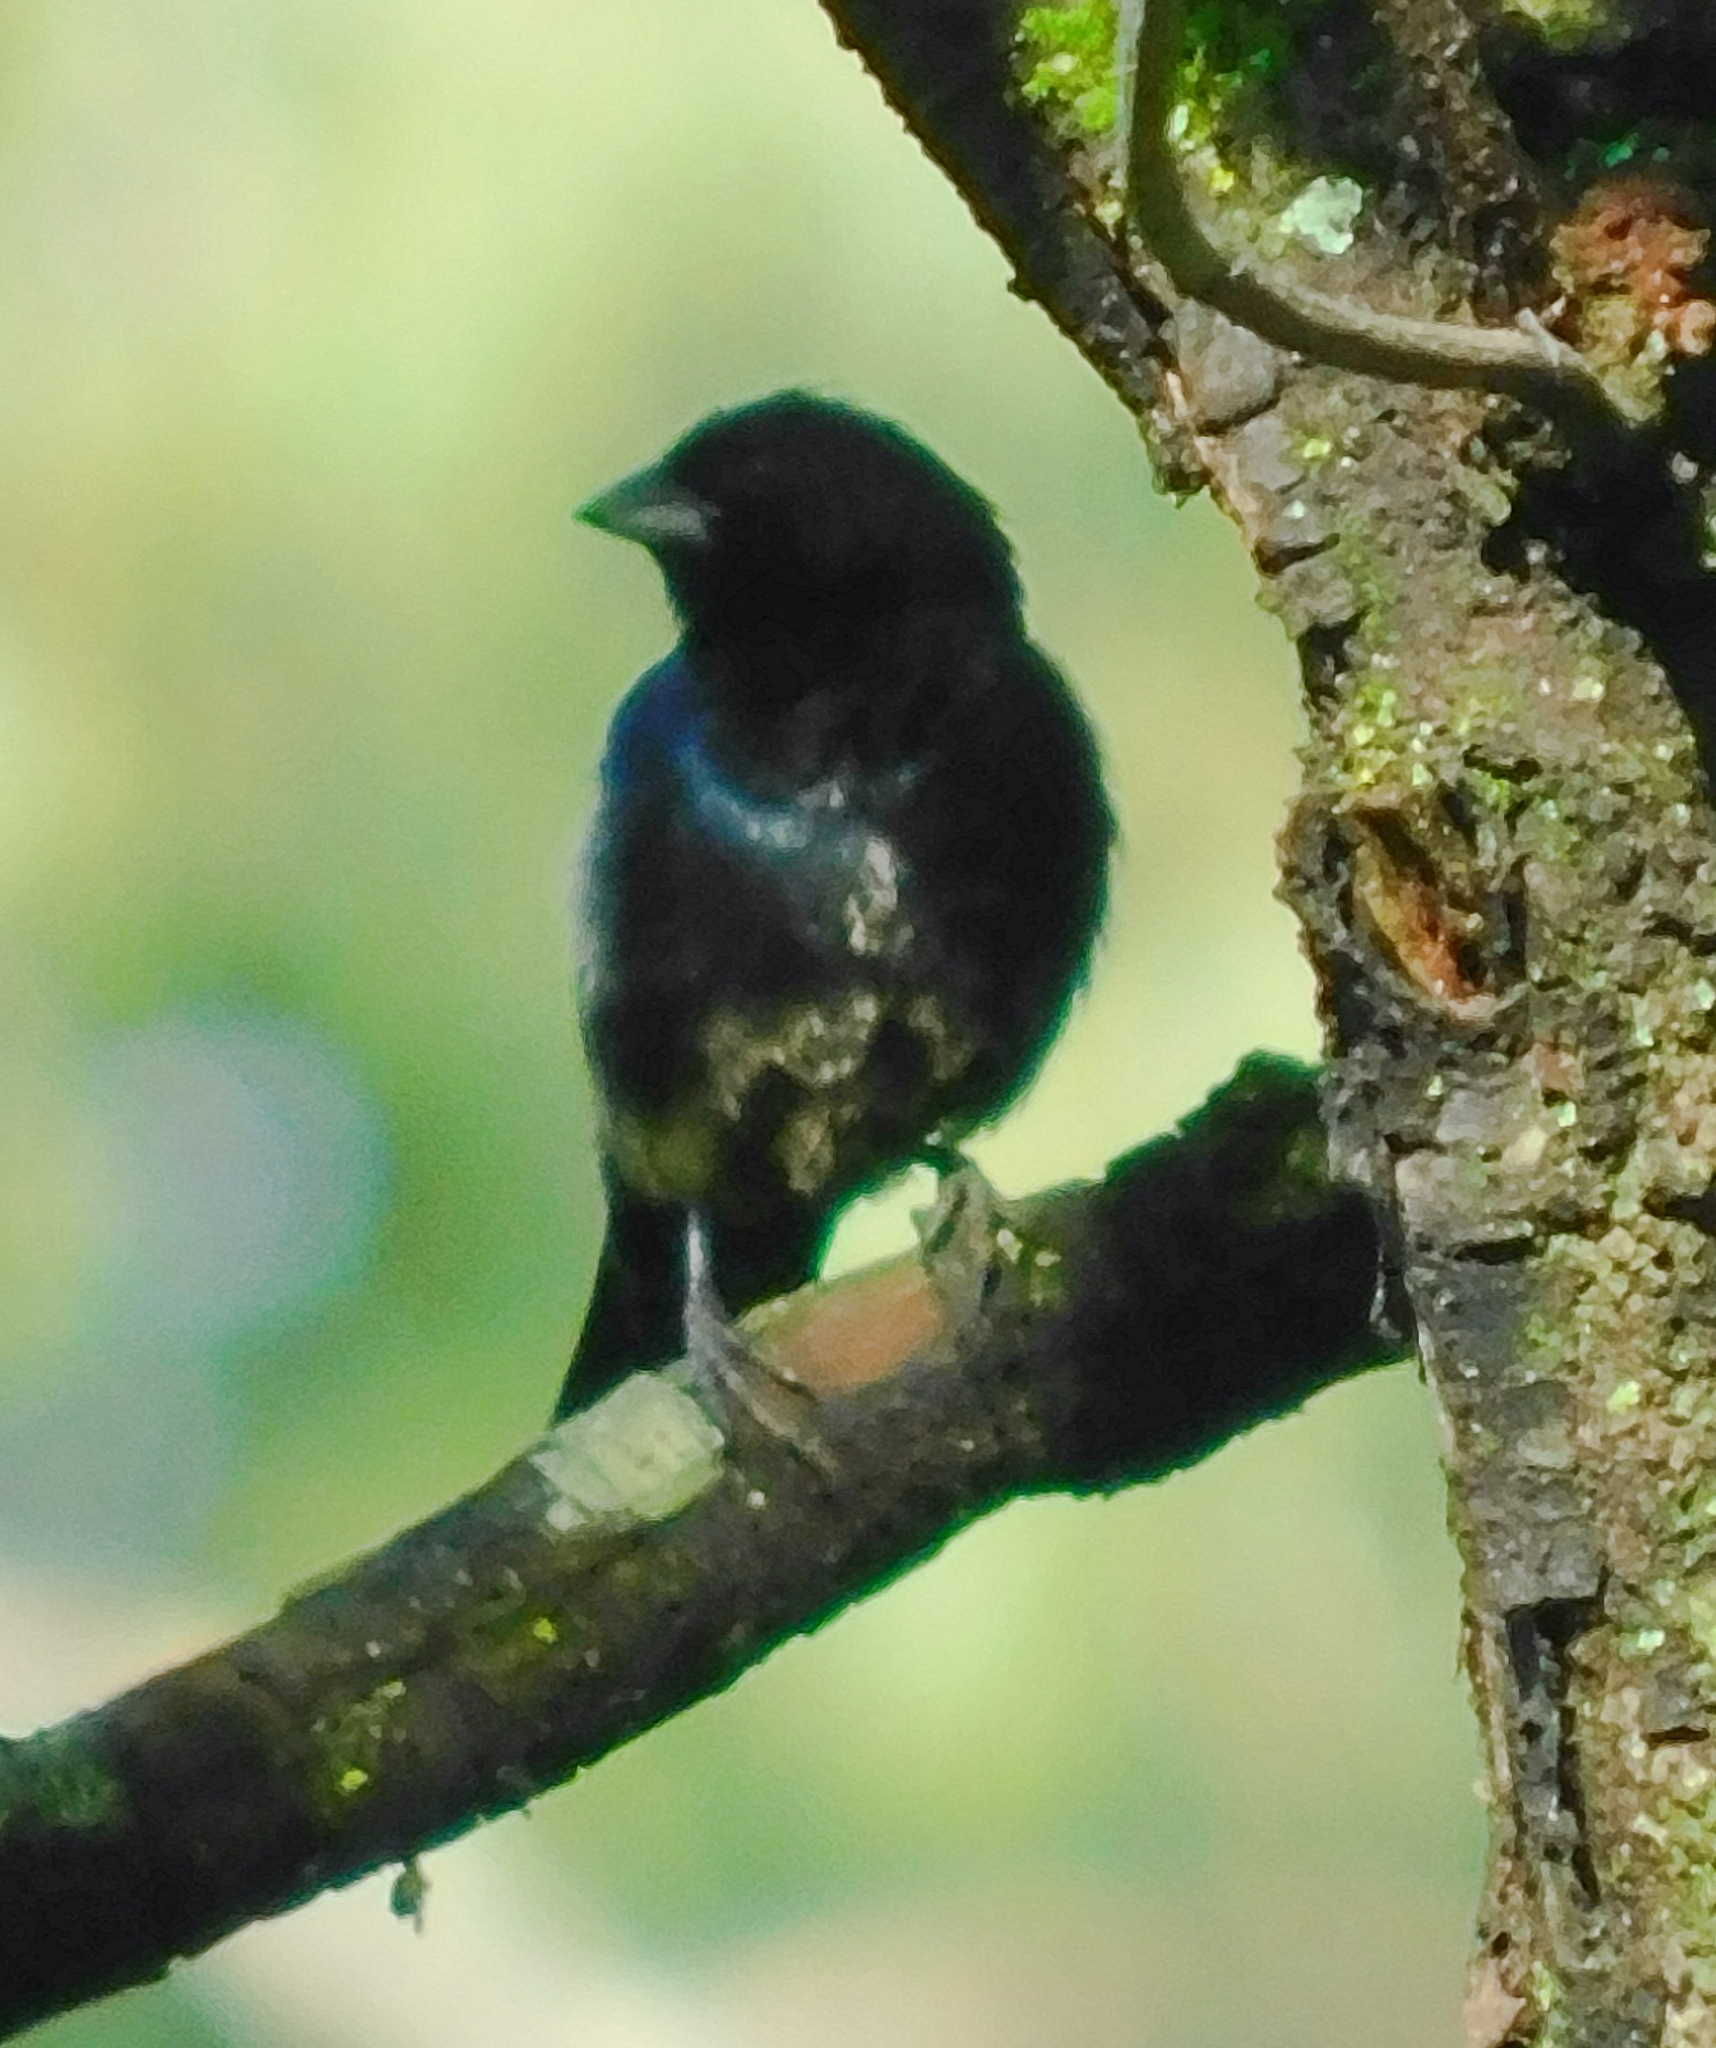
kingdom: Animalia
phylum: Chordata
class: Aves
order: Passeriformes
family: Thraupidae
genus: Volatinia
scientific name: Volatinia jacarina
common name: Blue-black grassquit
